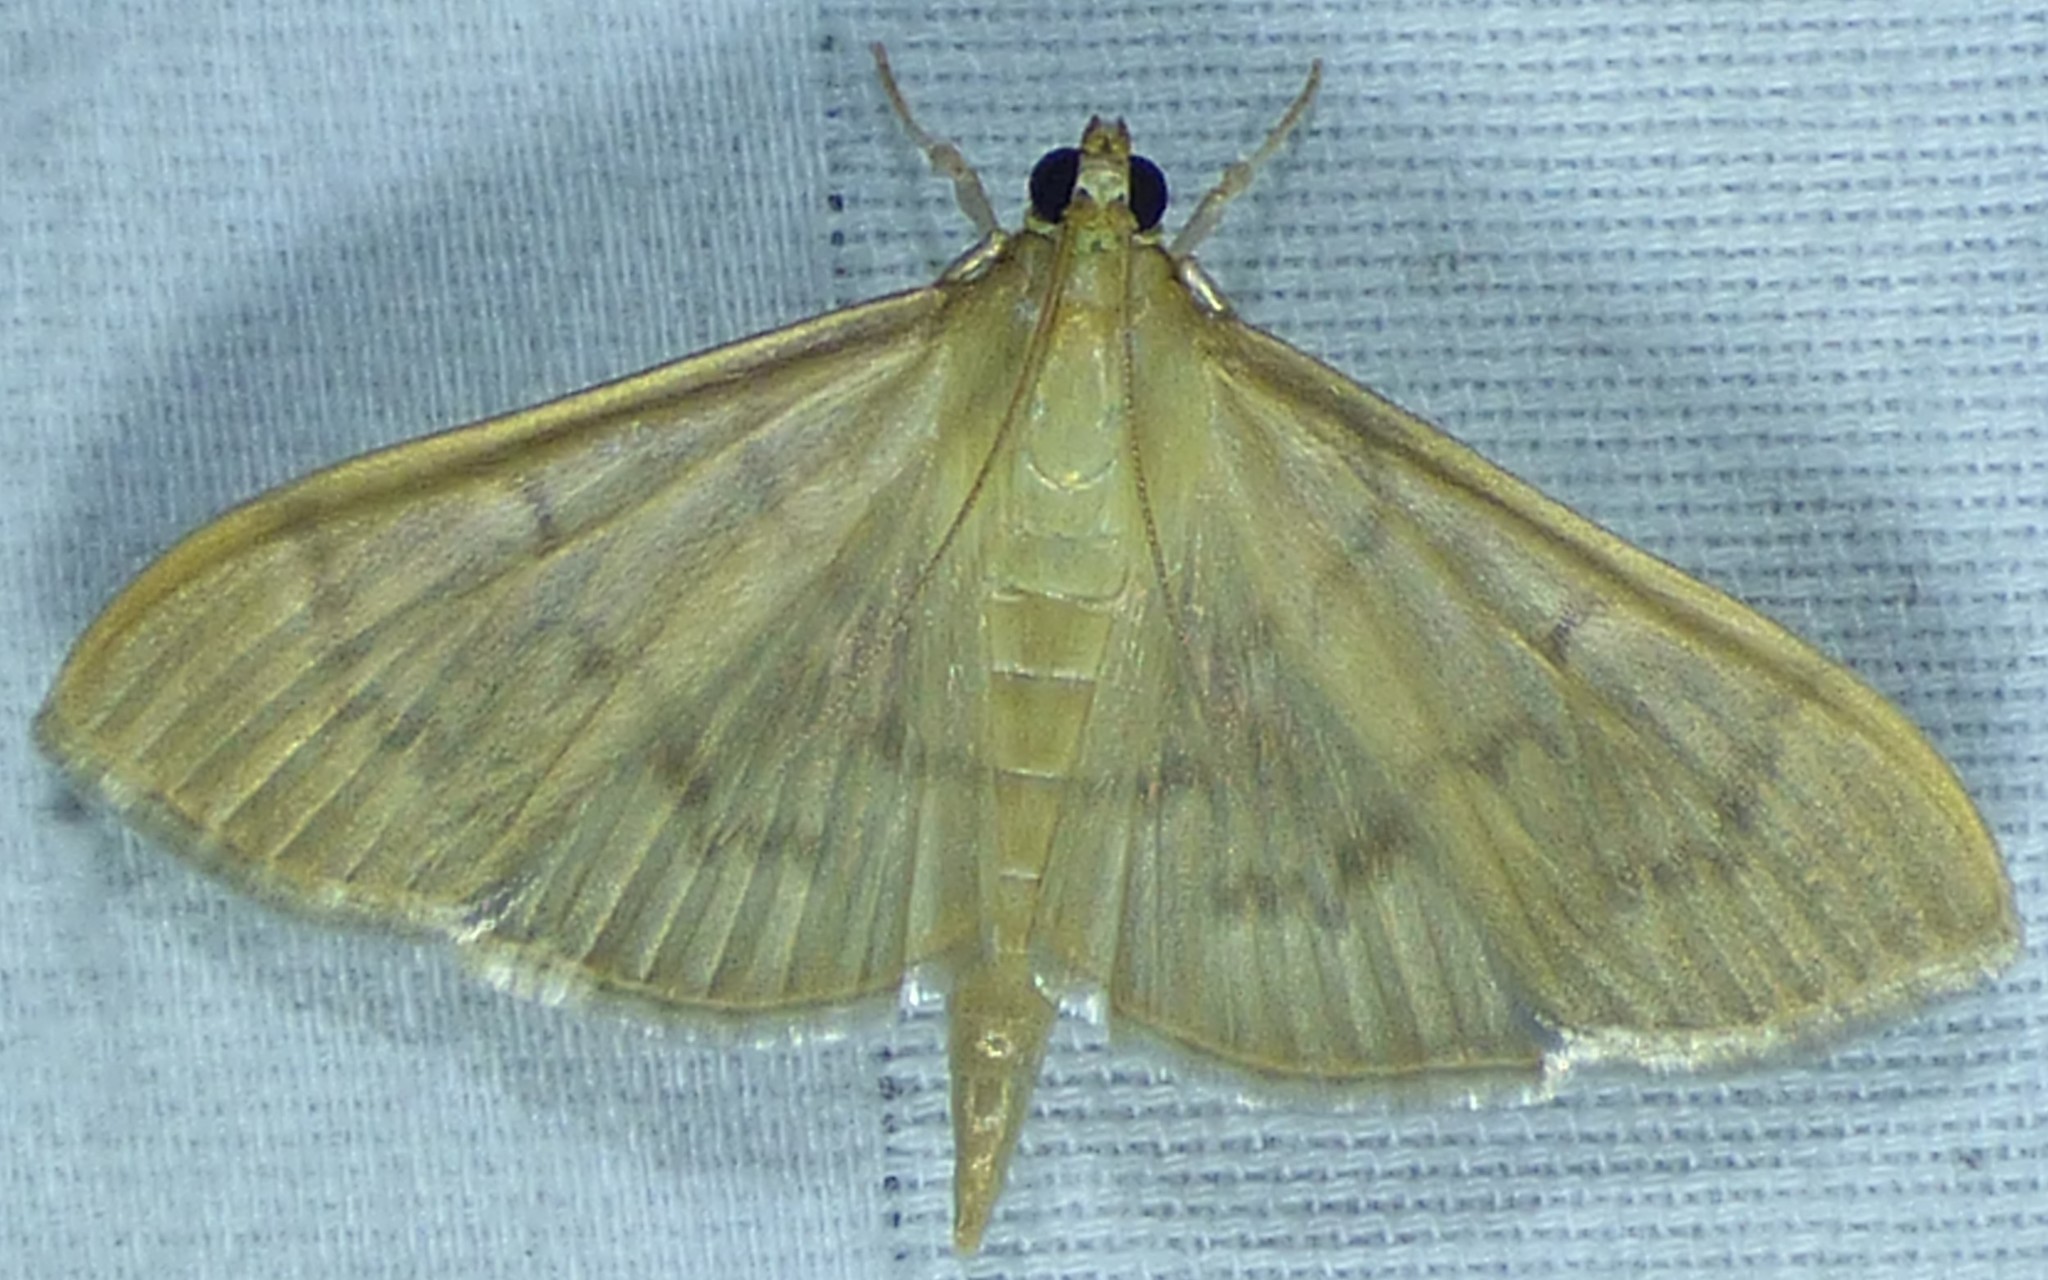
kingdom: Animalia
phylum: Arthropoda
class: Insecta
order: Lepidoptera
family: Crambidae
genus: Pleuroptya
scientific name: Pleuroptya silicalis
